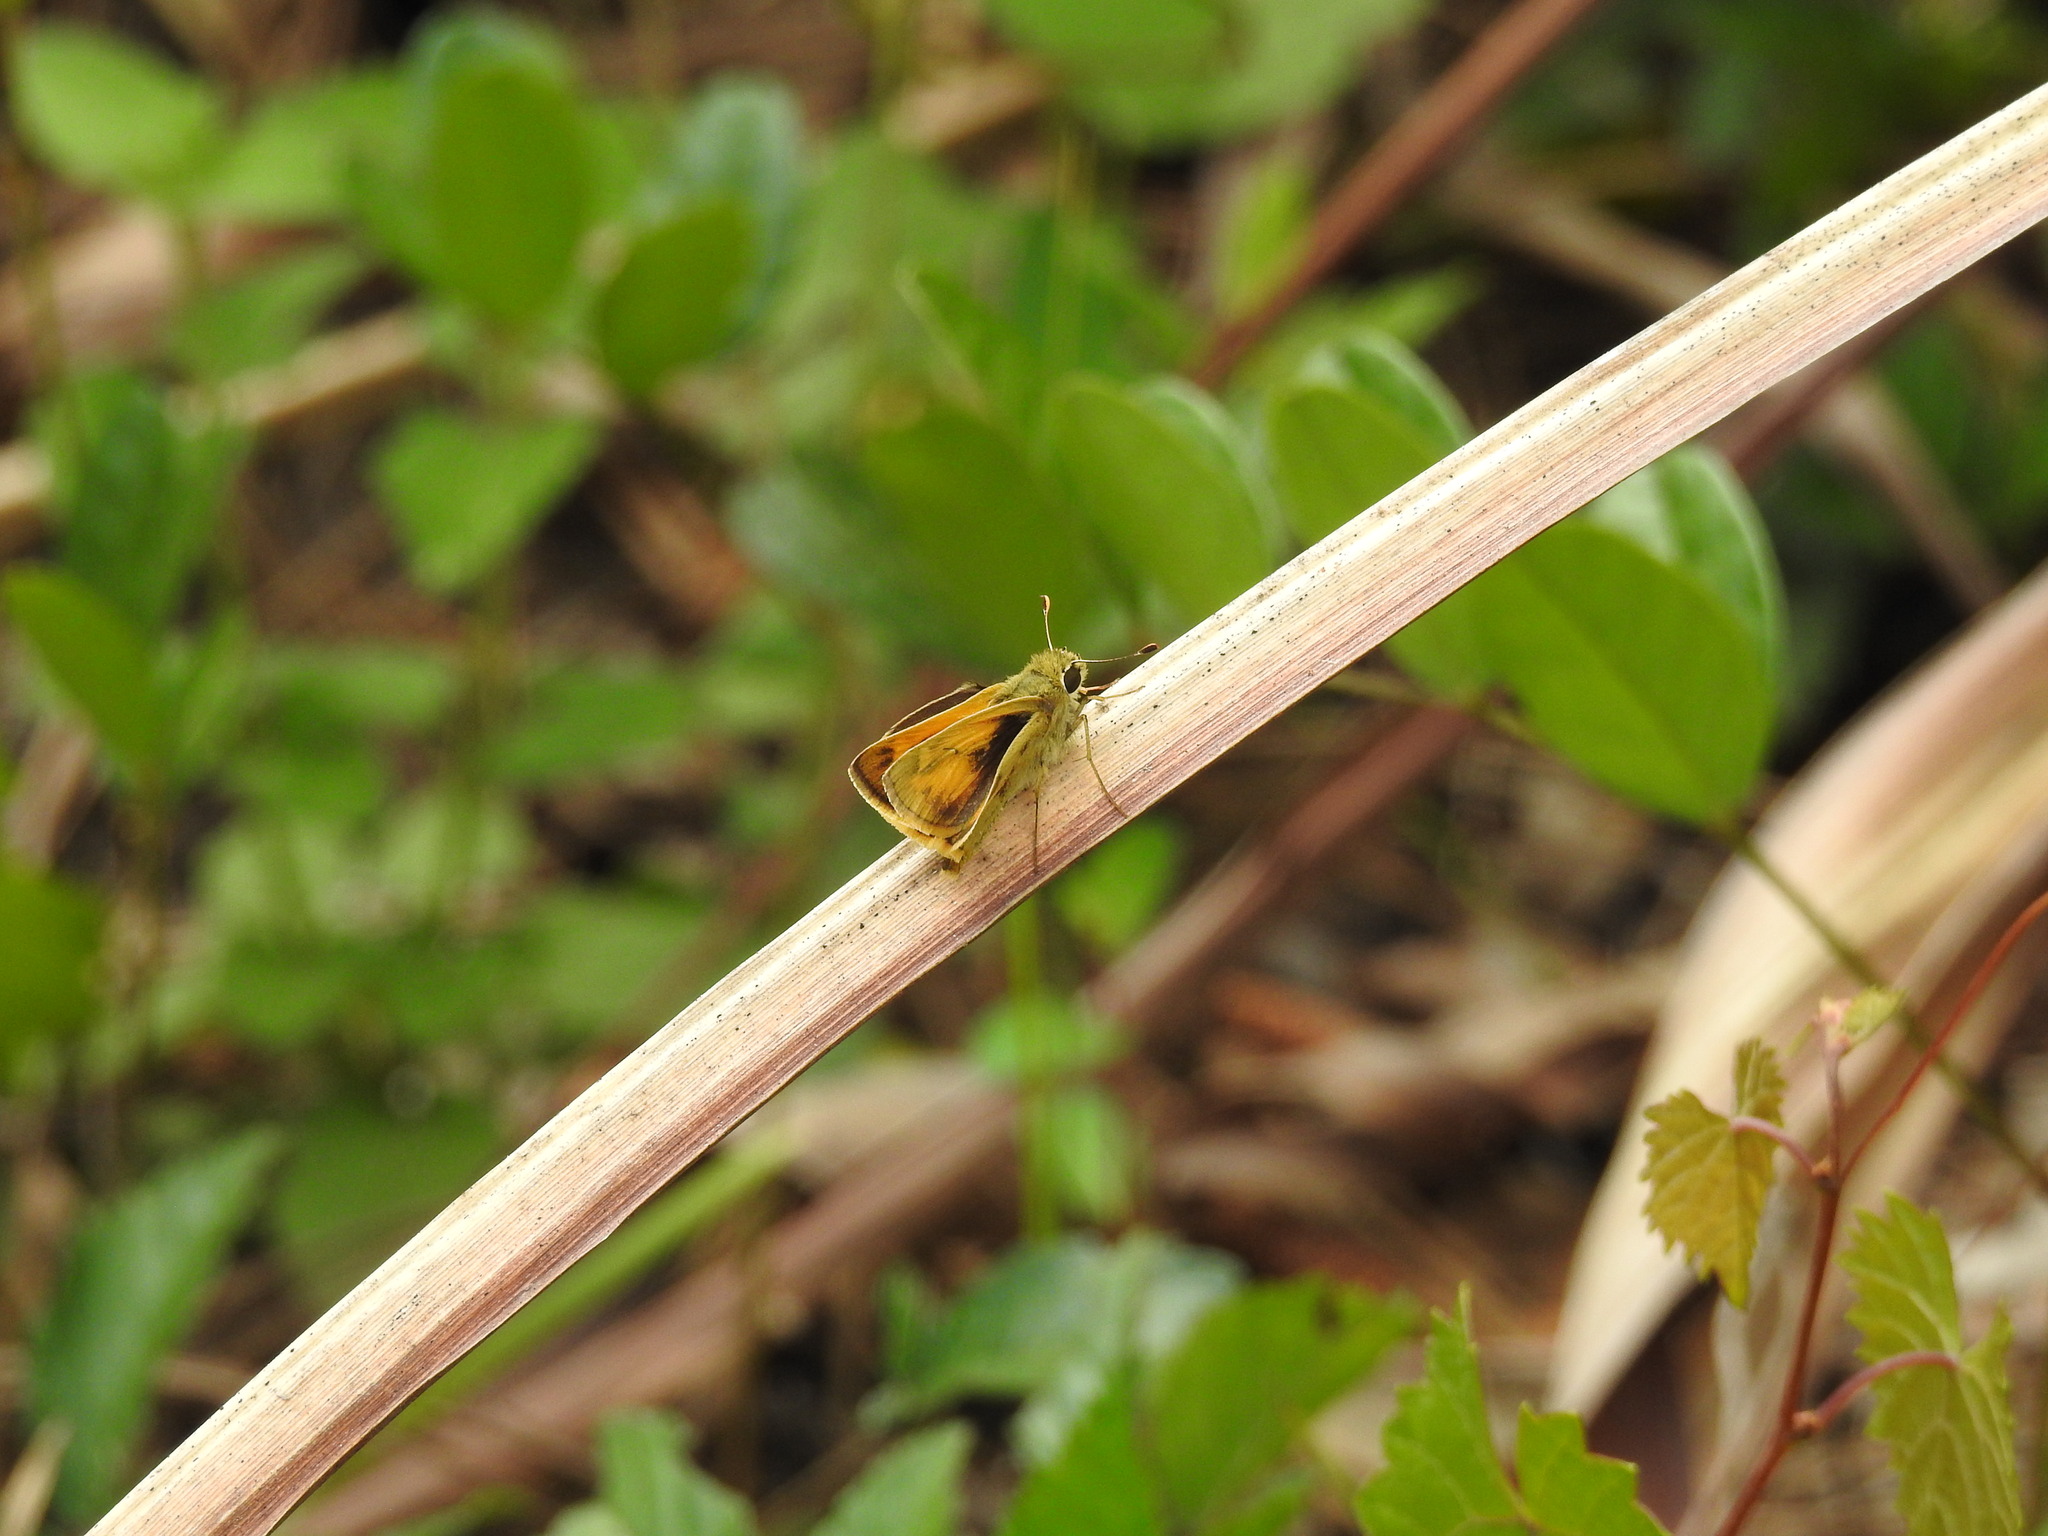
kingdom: Animalia
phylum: Arthropoda
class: Insecta
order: Lepidoptera
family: Hesperiidae
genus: Polites
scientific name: Polites vibex
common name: Whirlabout
